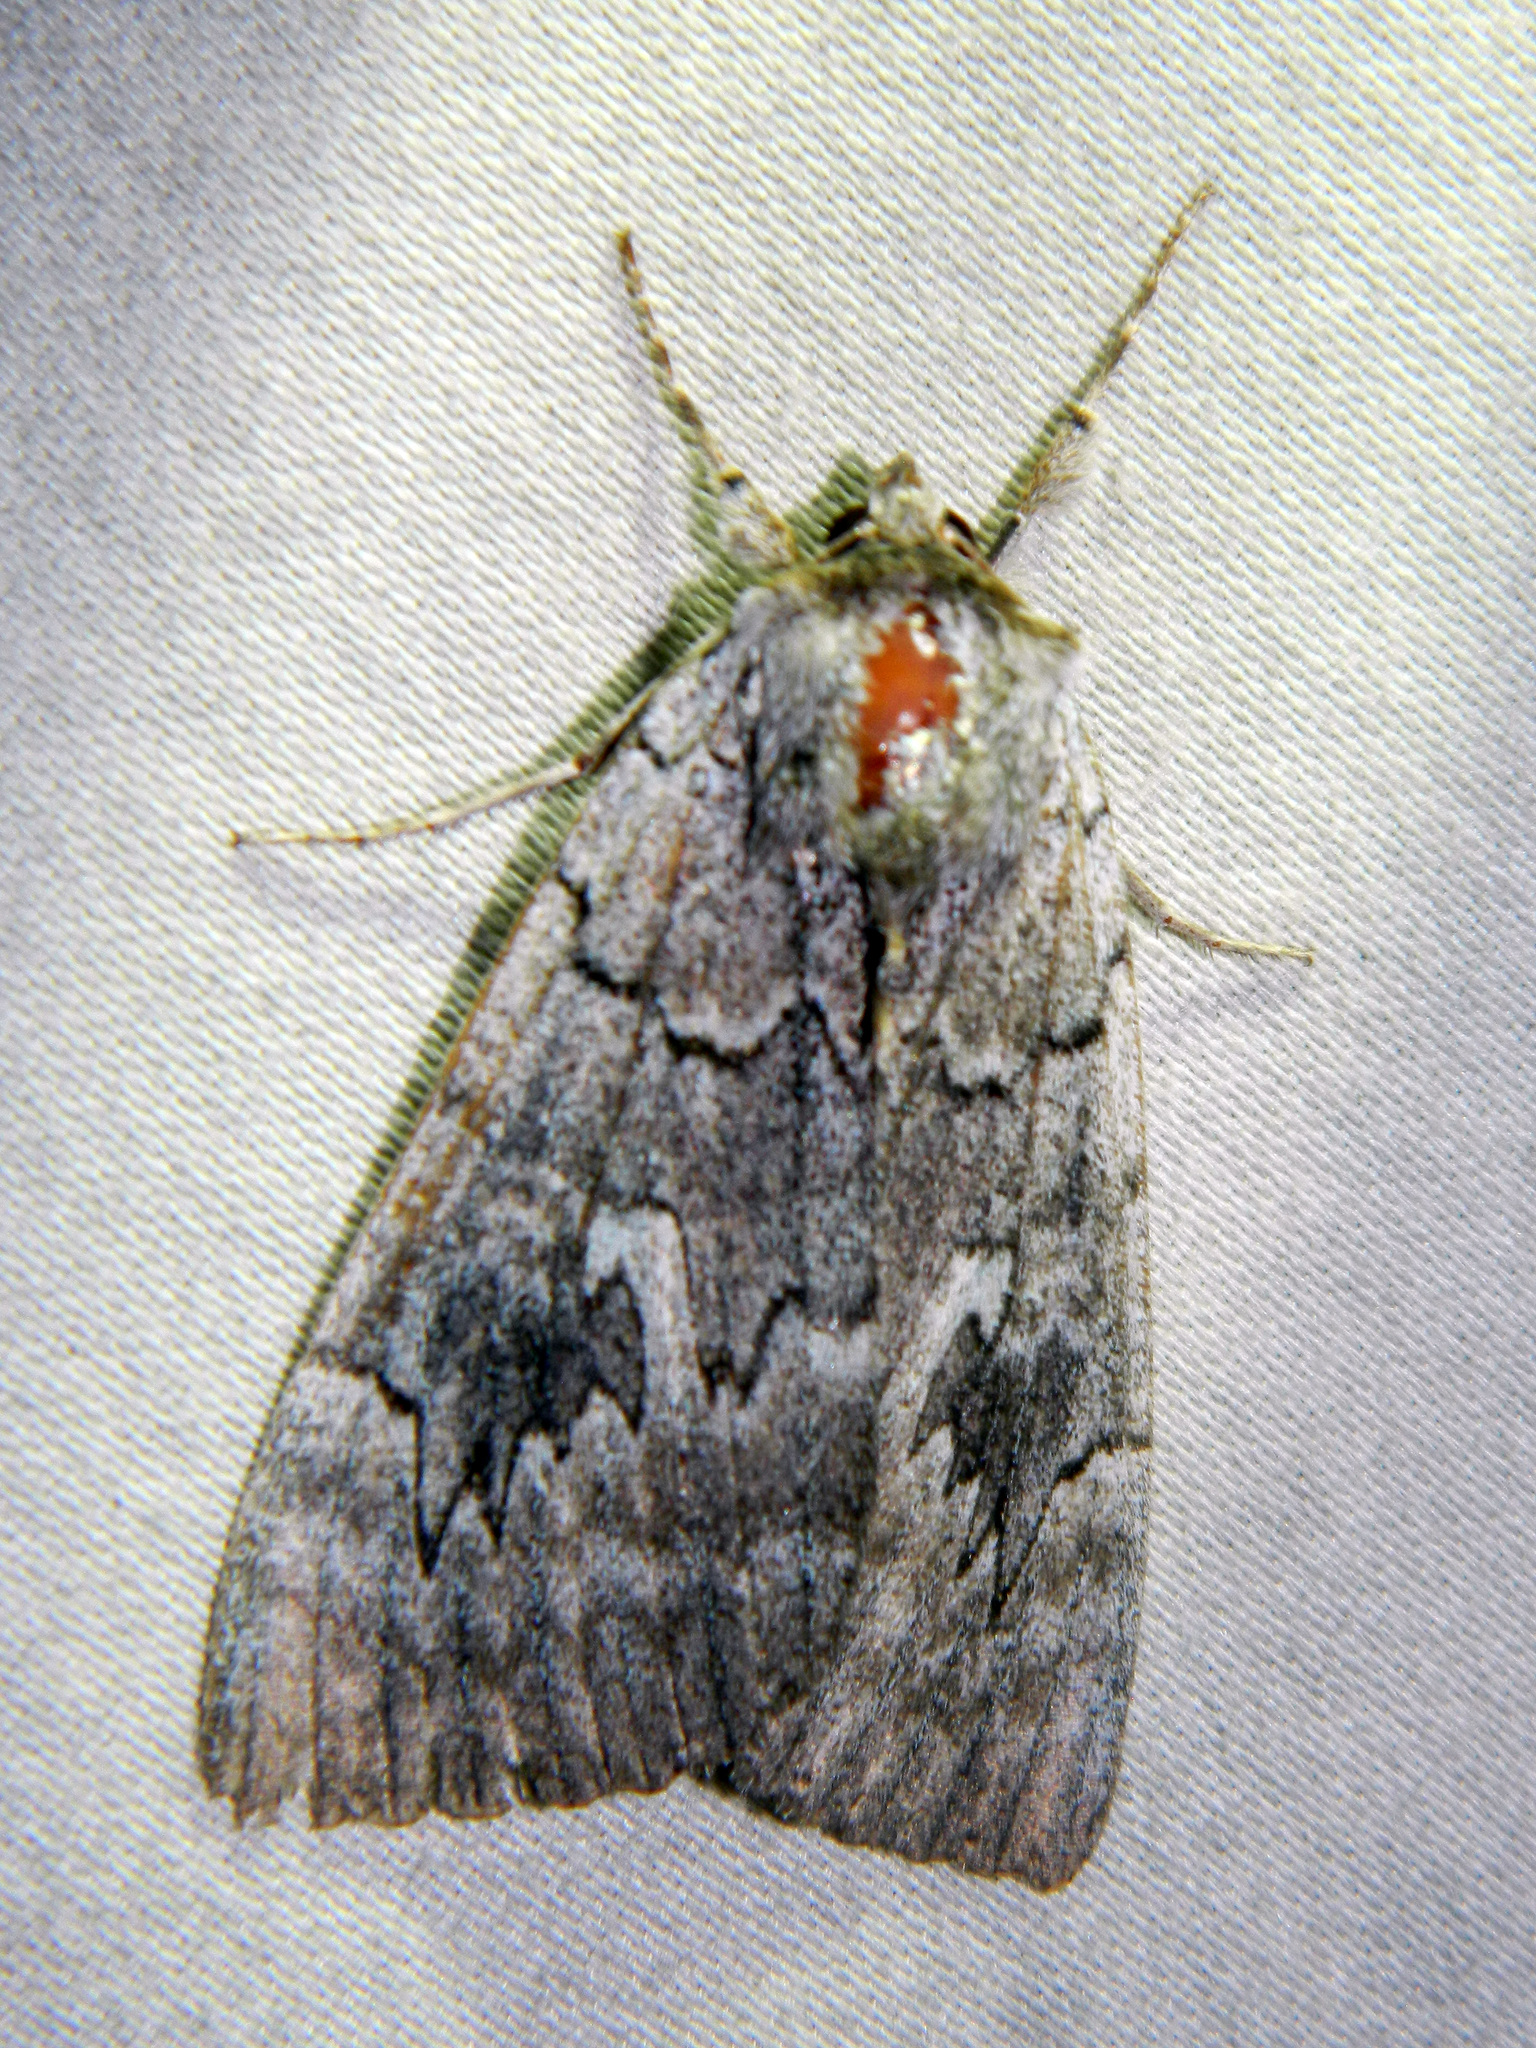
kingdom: Animalia
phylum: Arthropoda
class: Insecta
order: Lepidoptera
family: Erebidae
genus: Catocala
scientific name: Catocala concumbens
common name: Pink underwing
